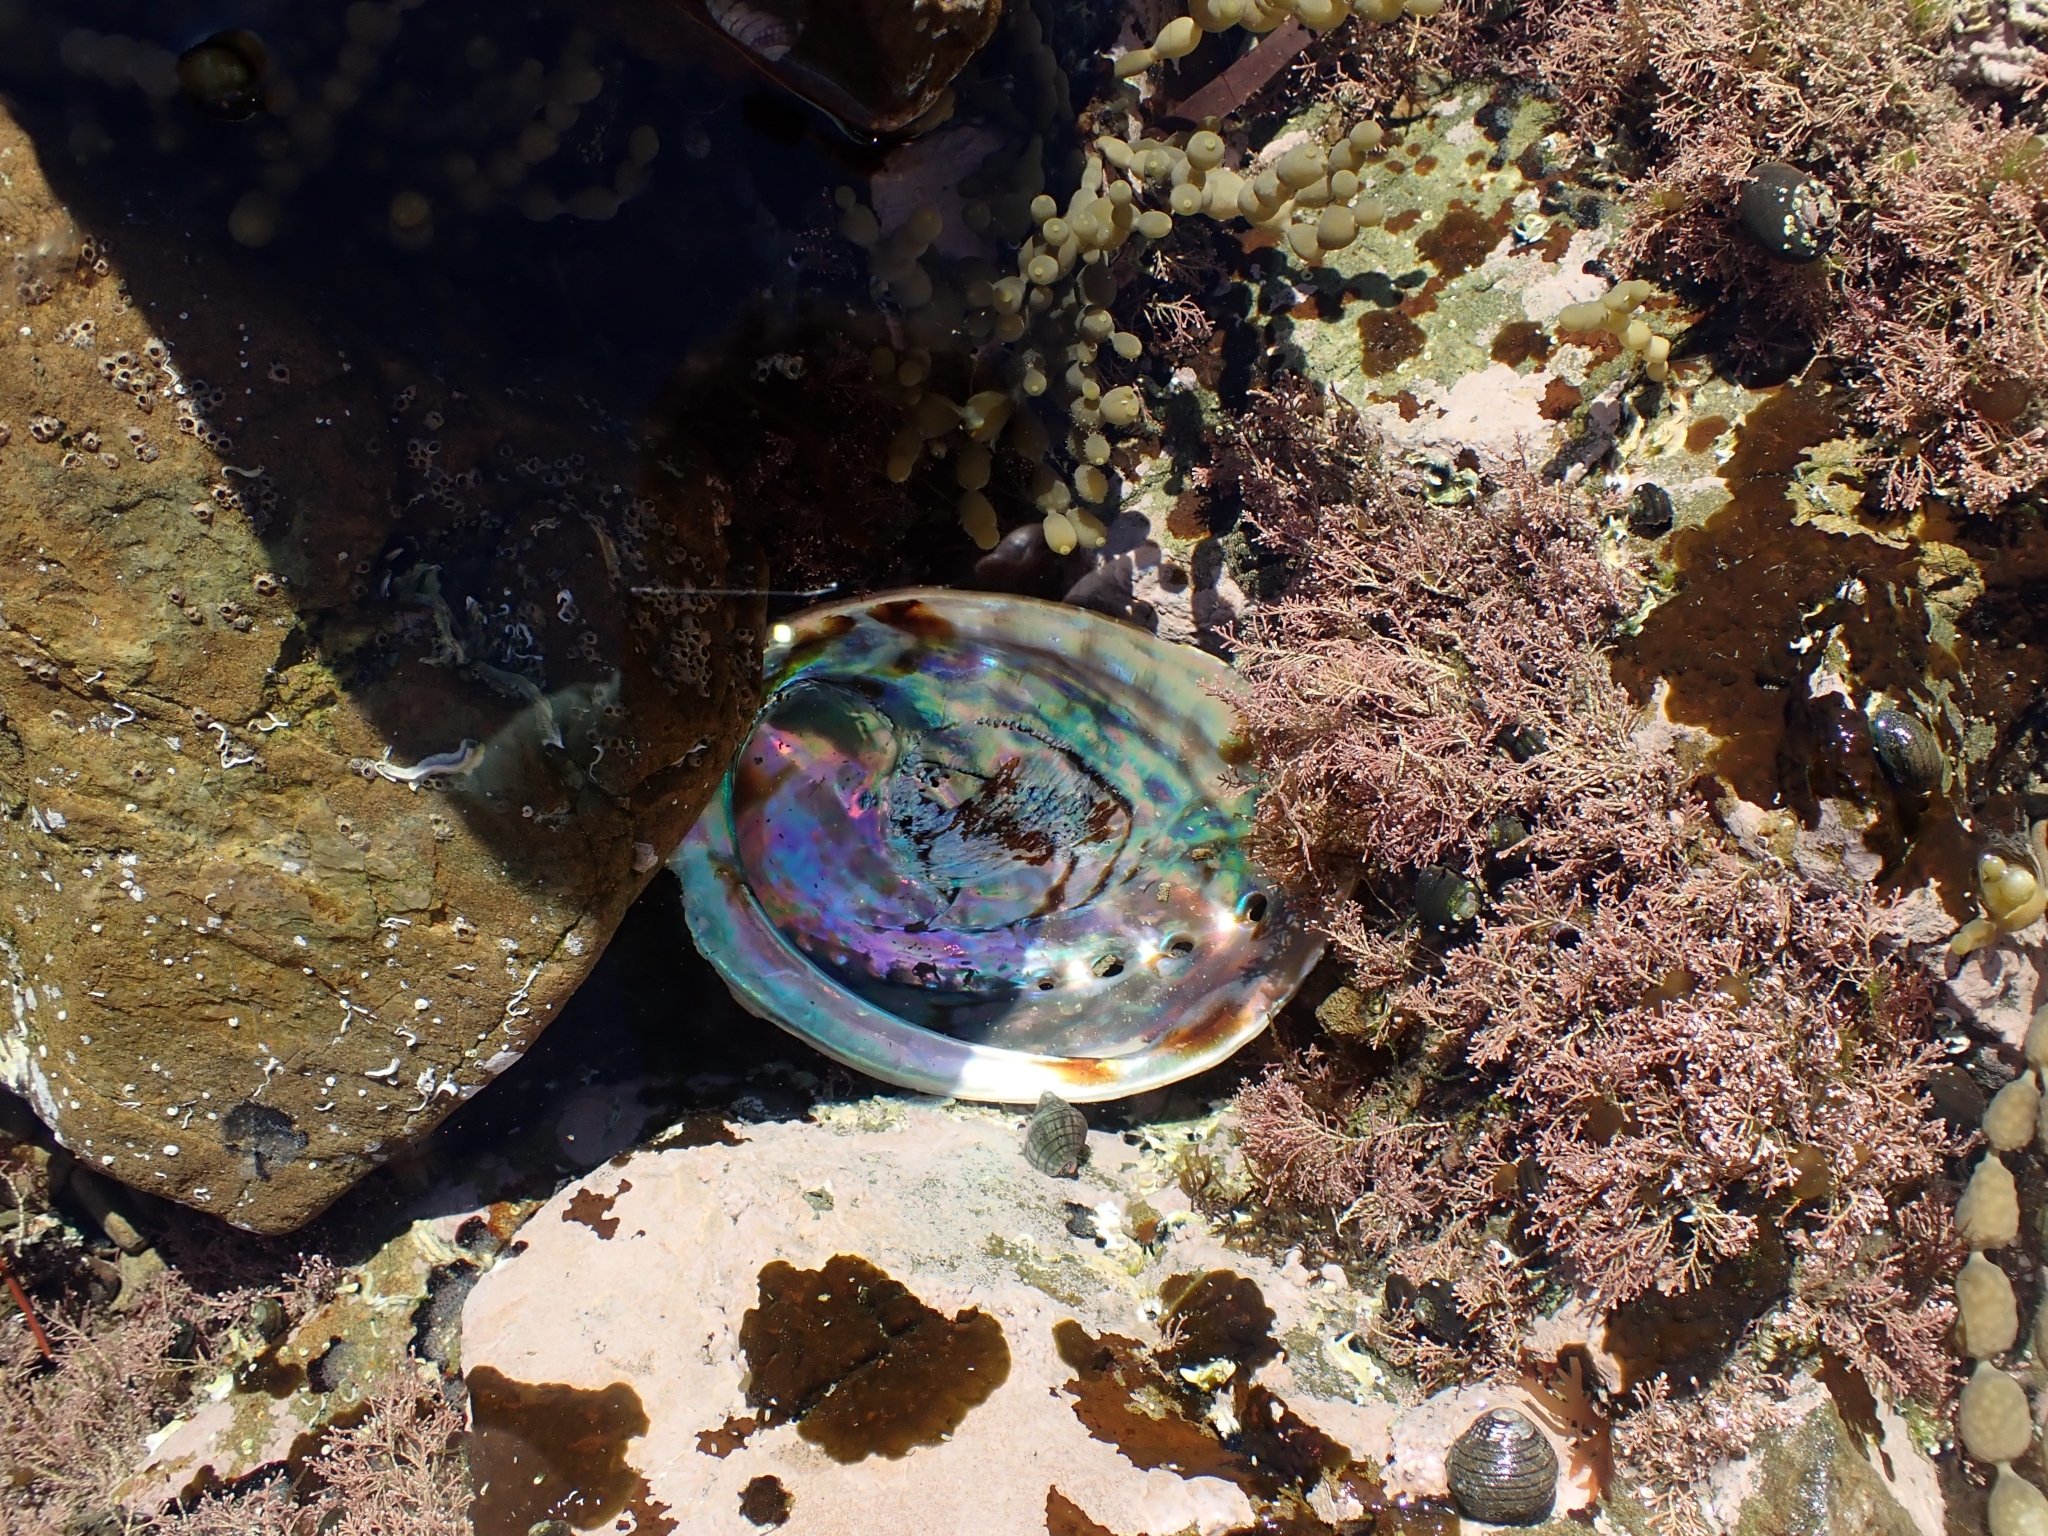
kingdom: Animalia
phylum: Mollusca
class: Gastropoda
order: Lepetellida
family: Haliotidae
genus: Haliotis
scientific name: Haliotis iris
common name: Abalone
